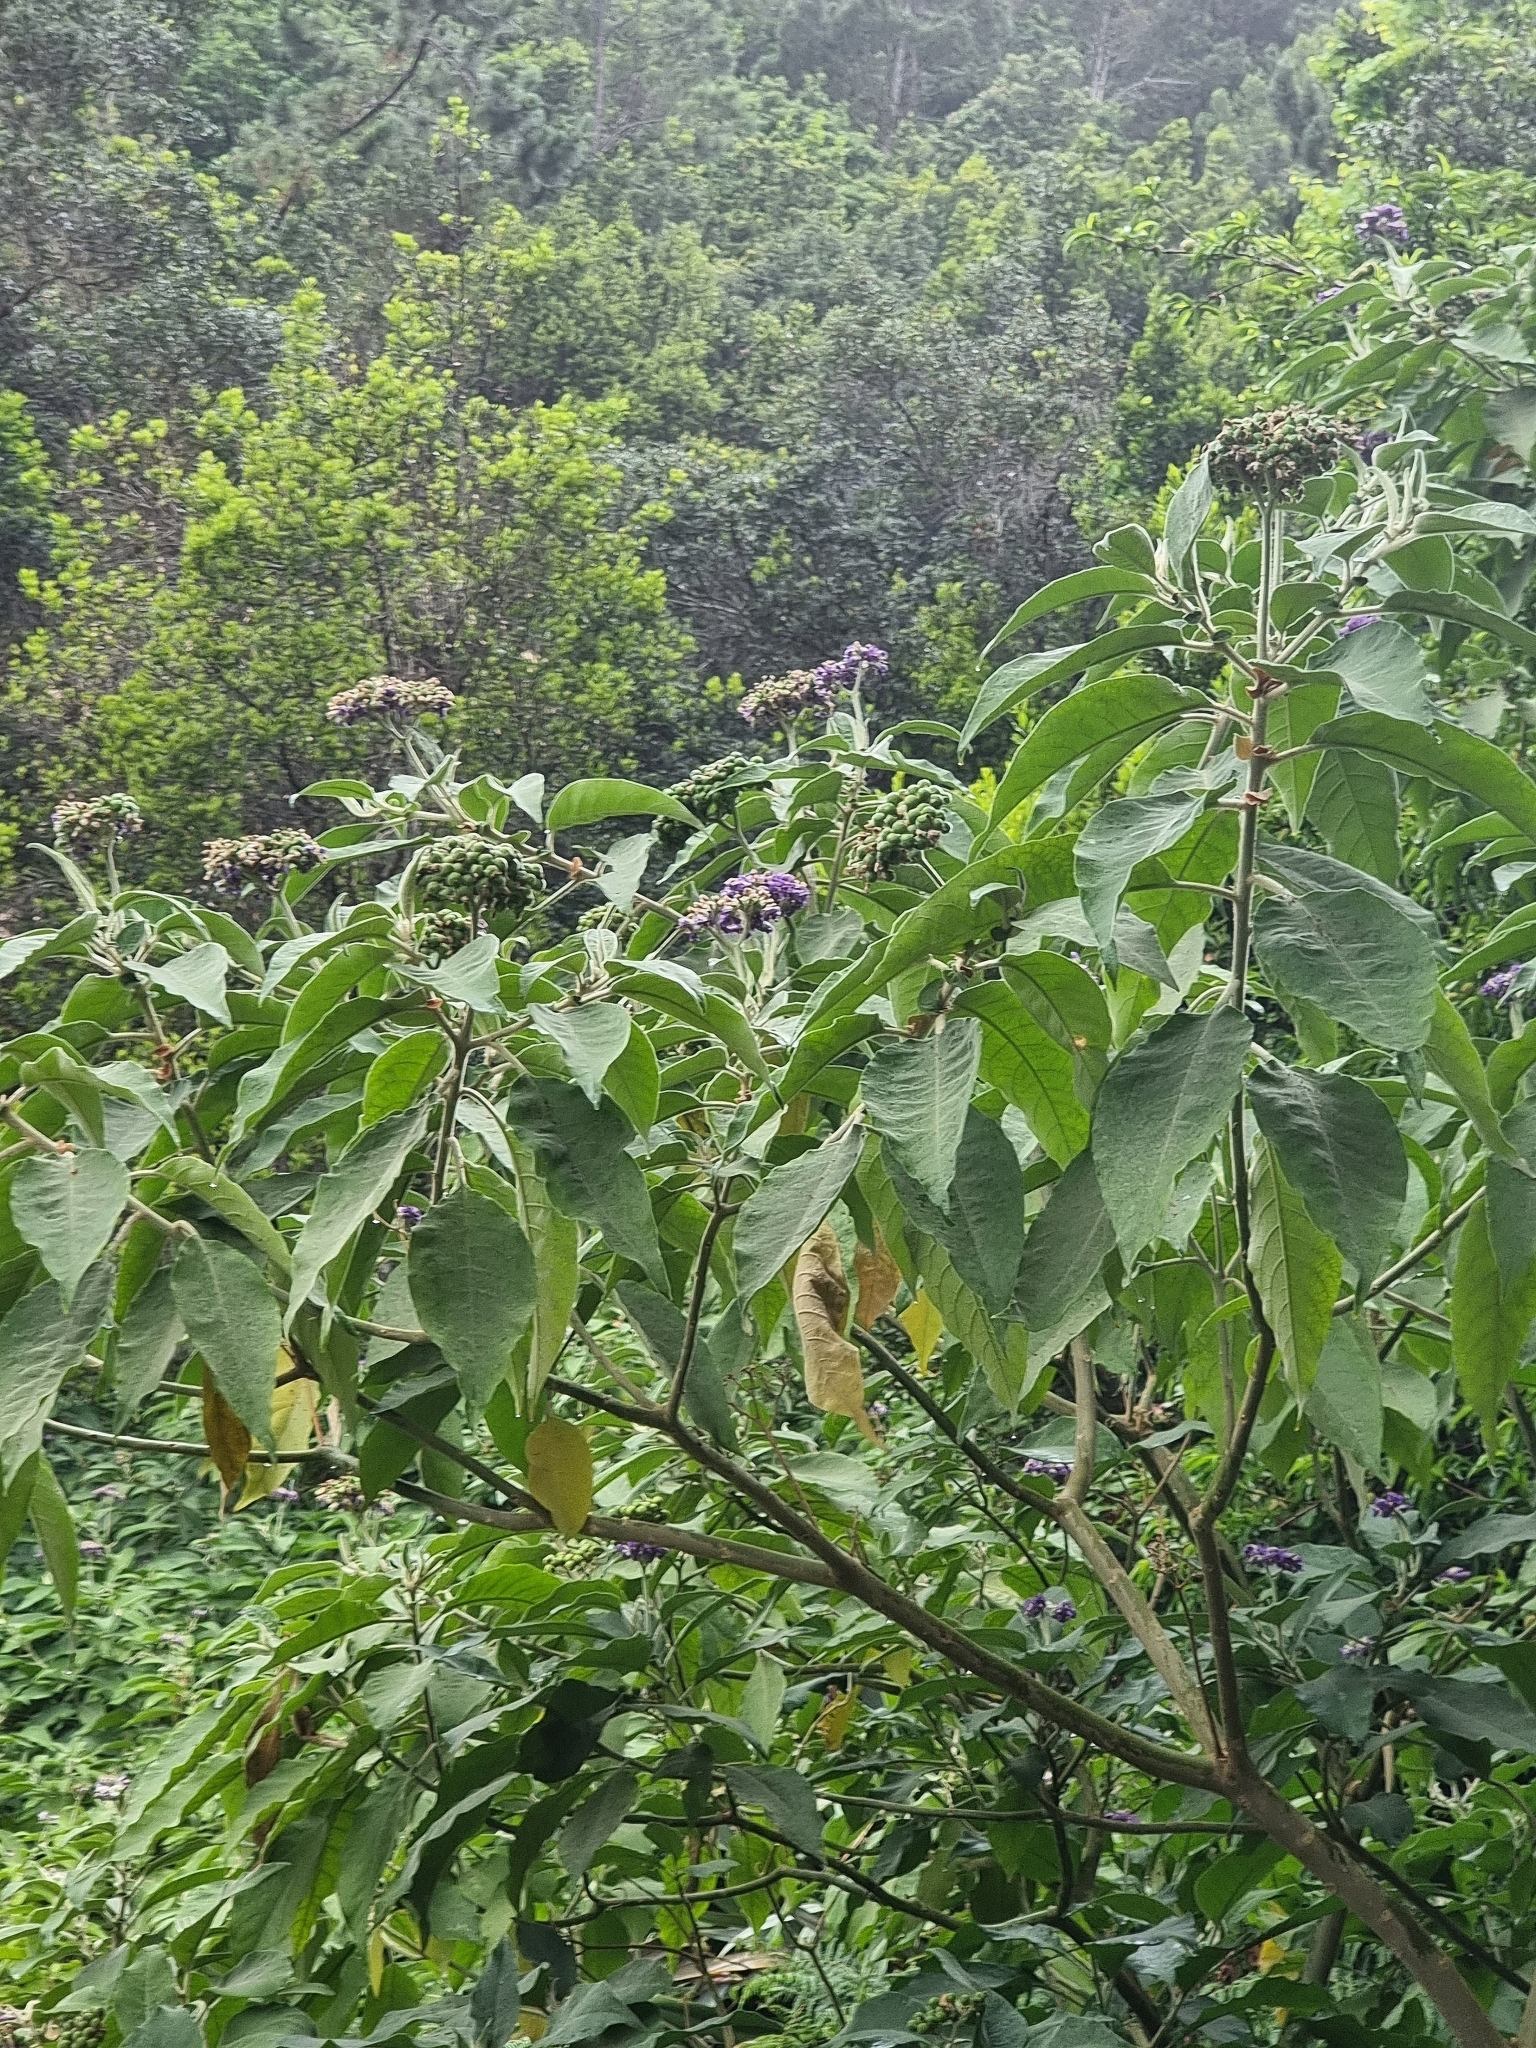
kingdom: Plantae
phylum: Tracheophyta
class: Magnoliopsida
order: Solanales
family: Solanaceae
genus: Solanum
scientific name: Solanum mauritianum
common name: Earleaf nightshade
